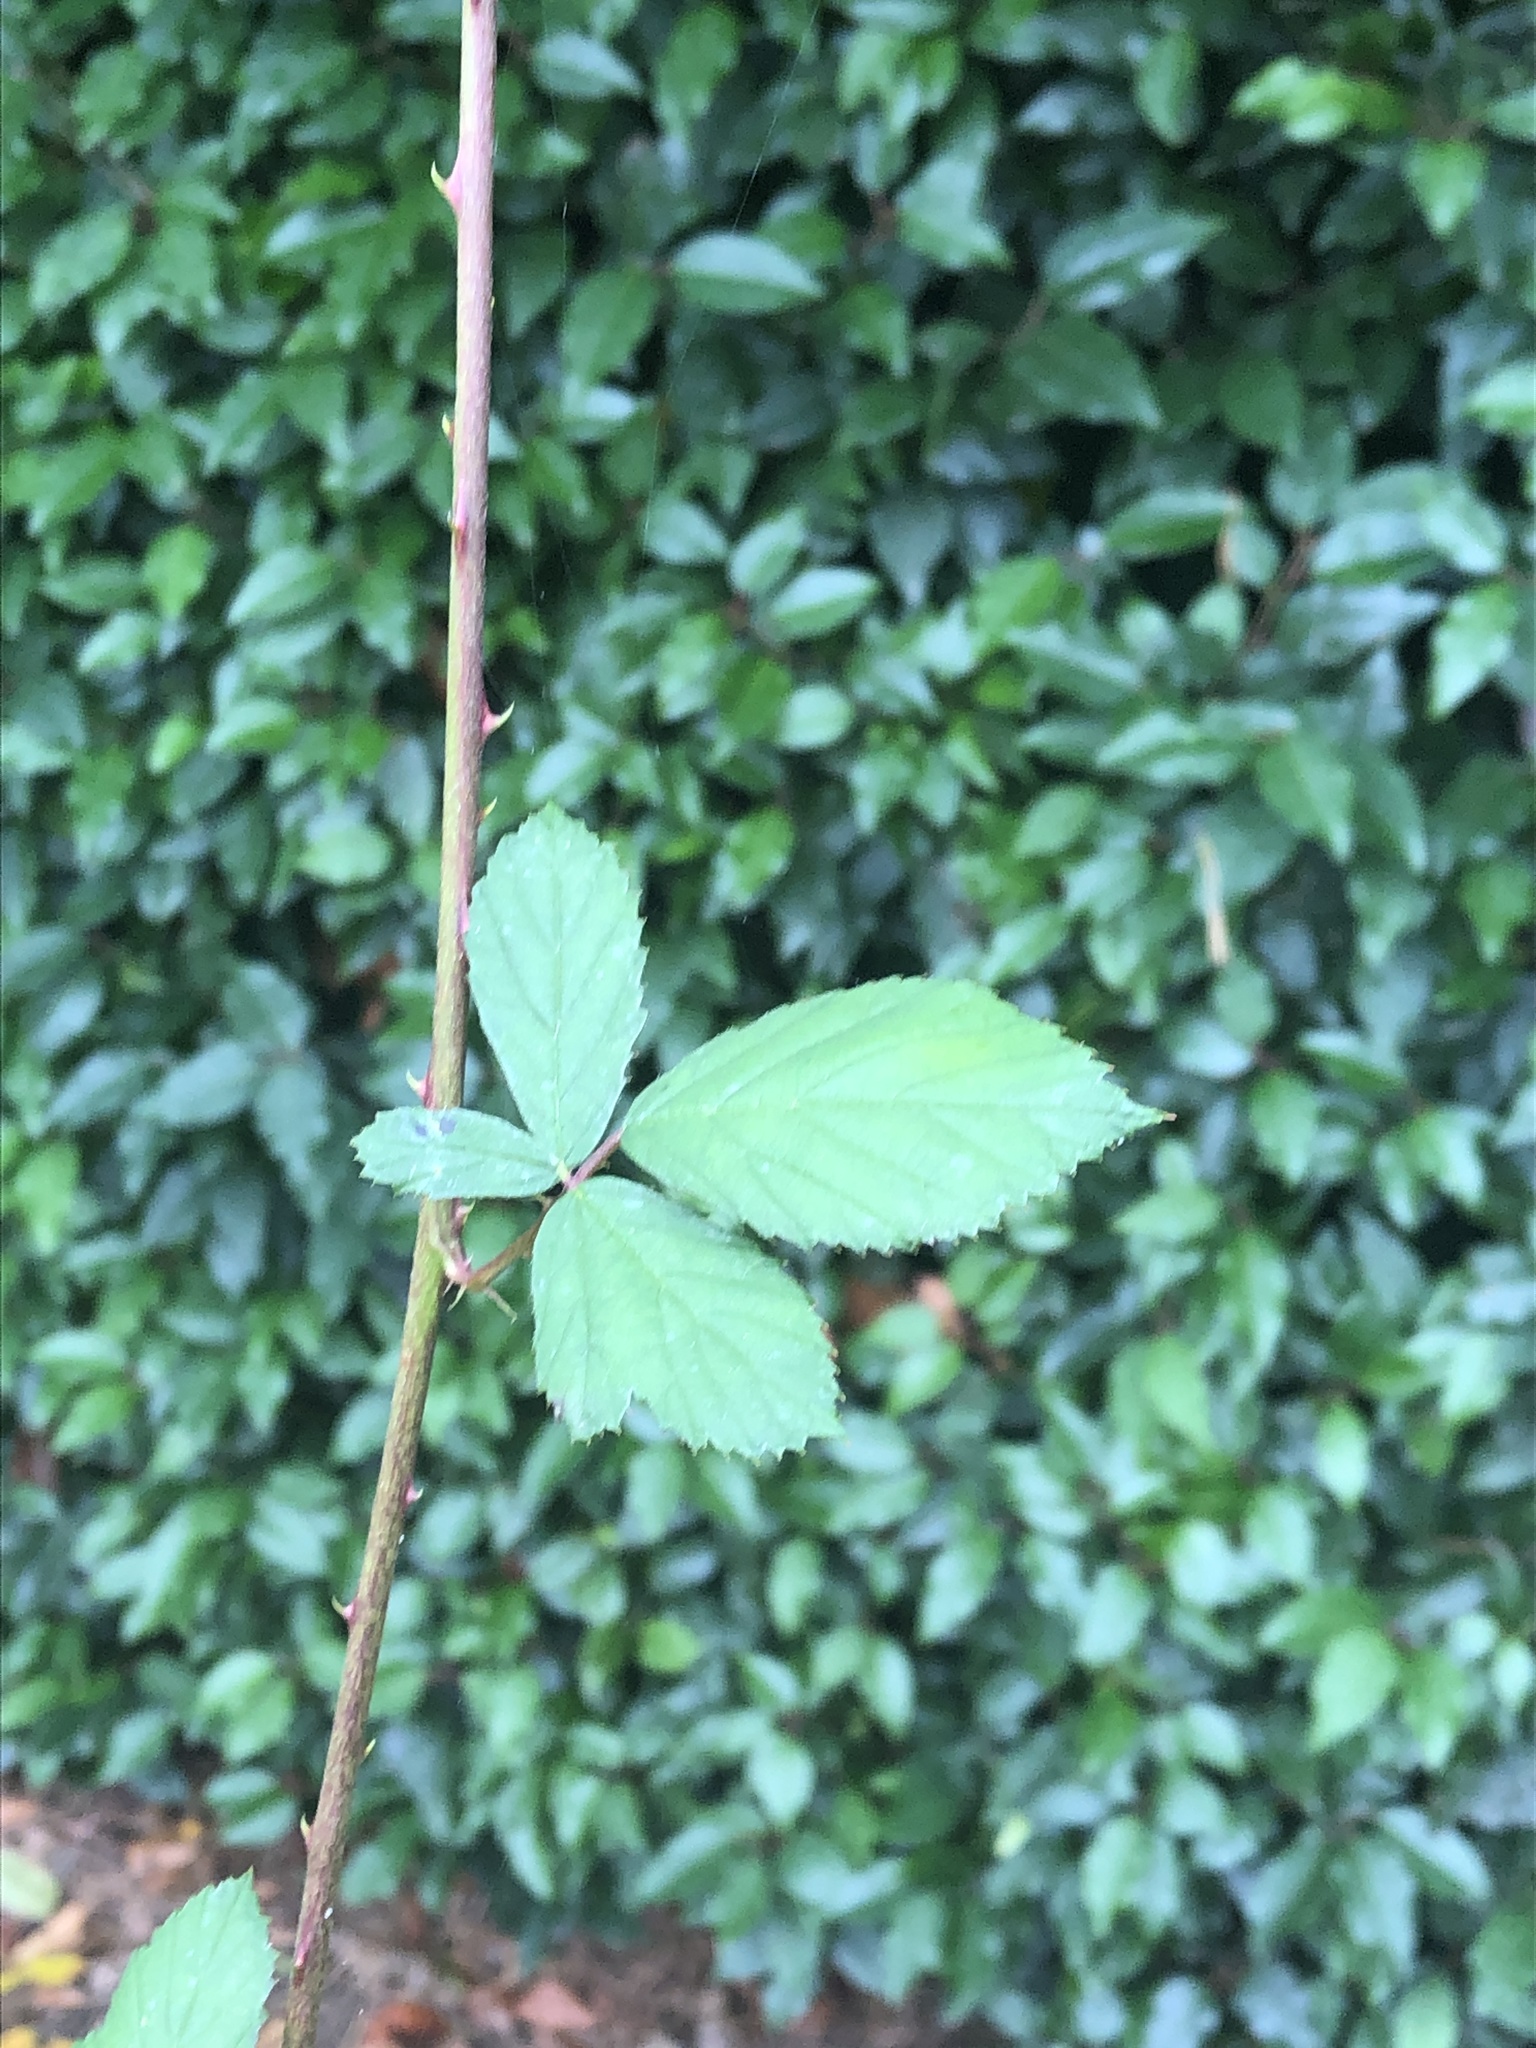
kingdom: Plantae
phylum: Tracheophyta
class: Magnoliopsida
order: Rosales
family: Rosaceae
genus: Rubus
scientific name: Rubus armeniacus
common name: Himalayan blackberry
